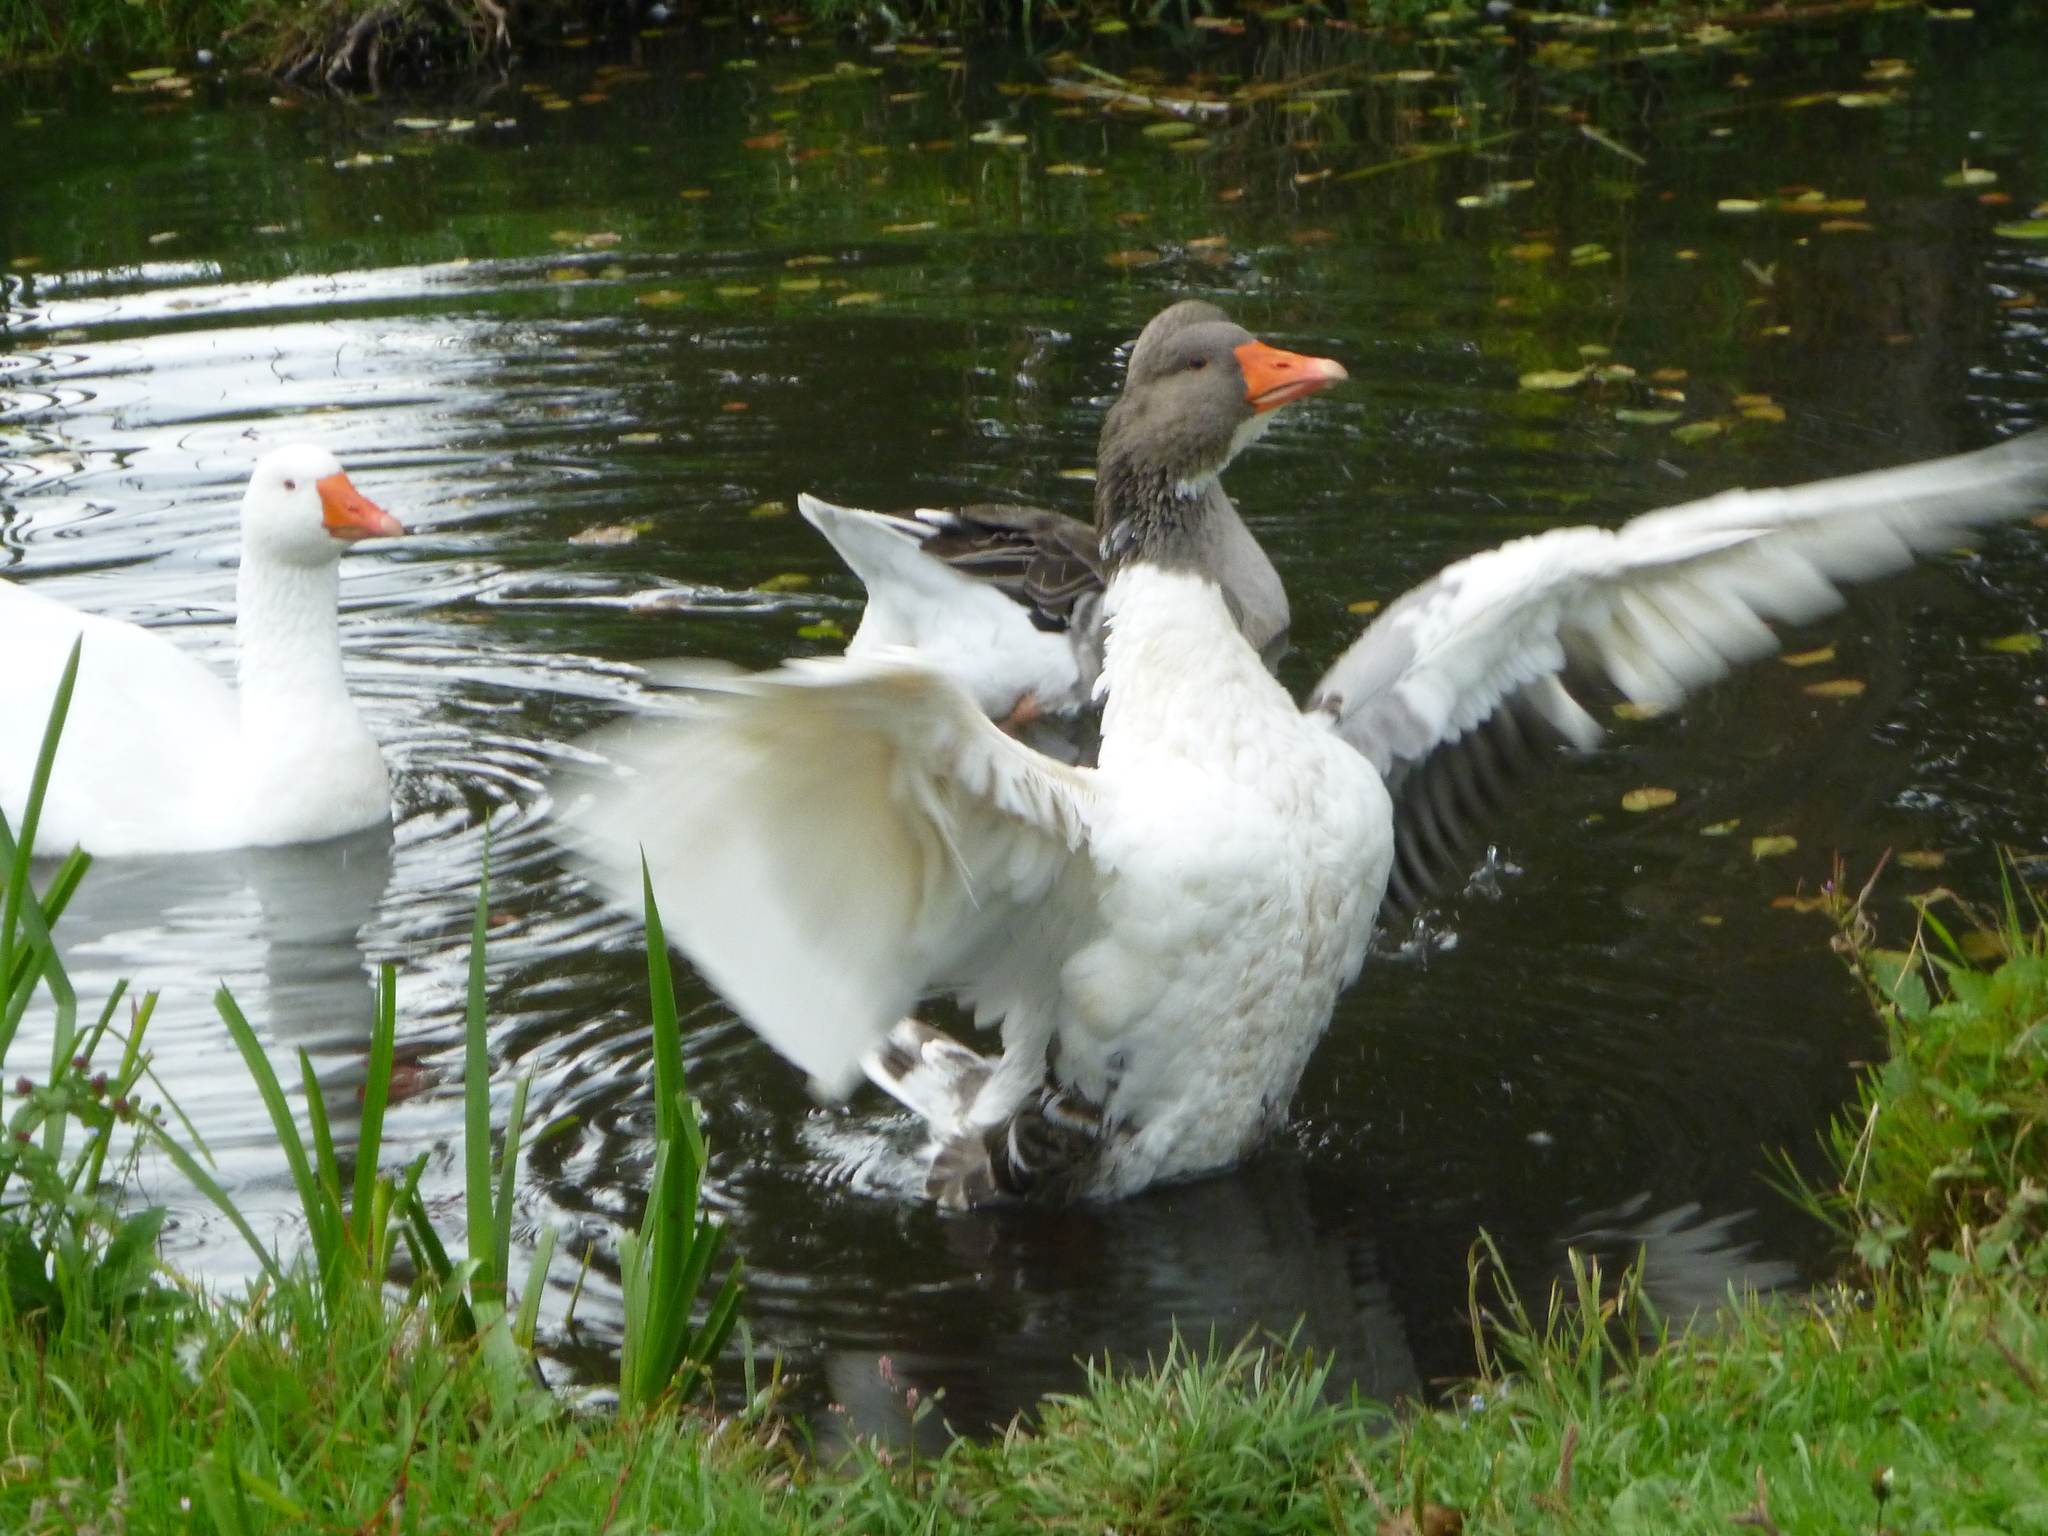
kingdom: Animalia
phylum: Chordata
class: Aves
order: Anseriformes
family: Anatidae
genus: Anser
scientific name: Anser anser
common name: Greylag goose
